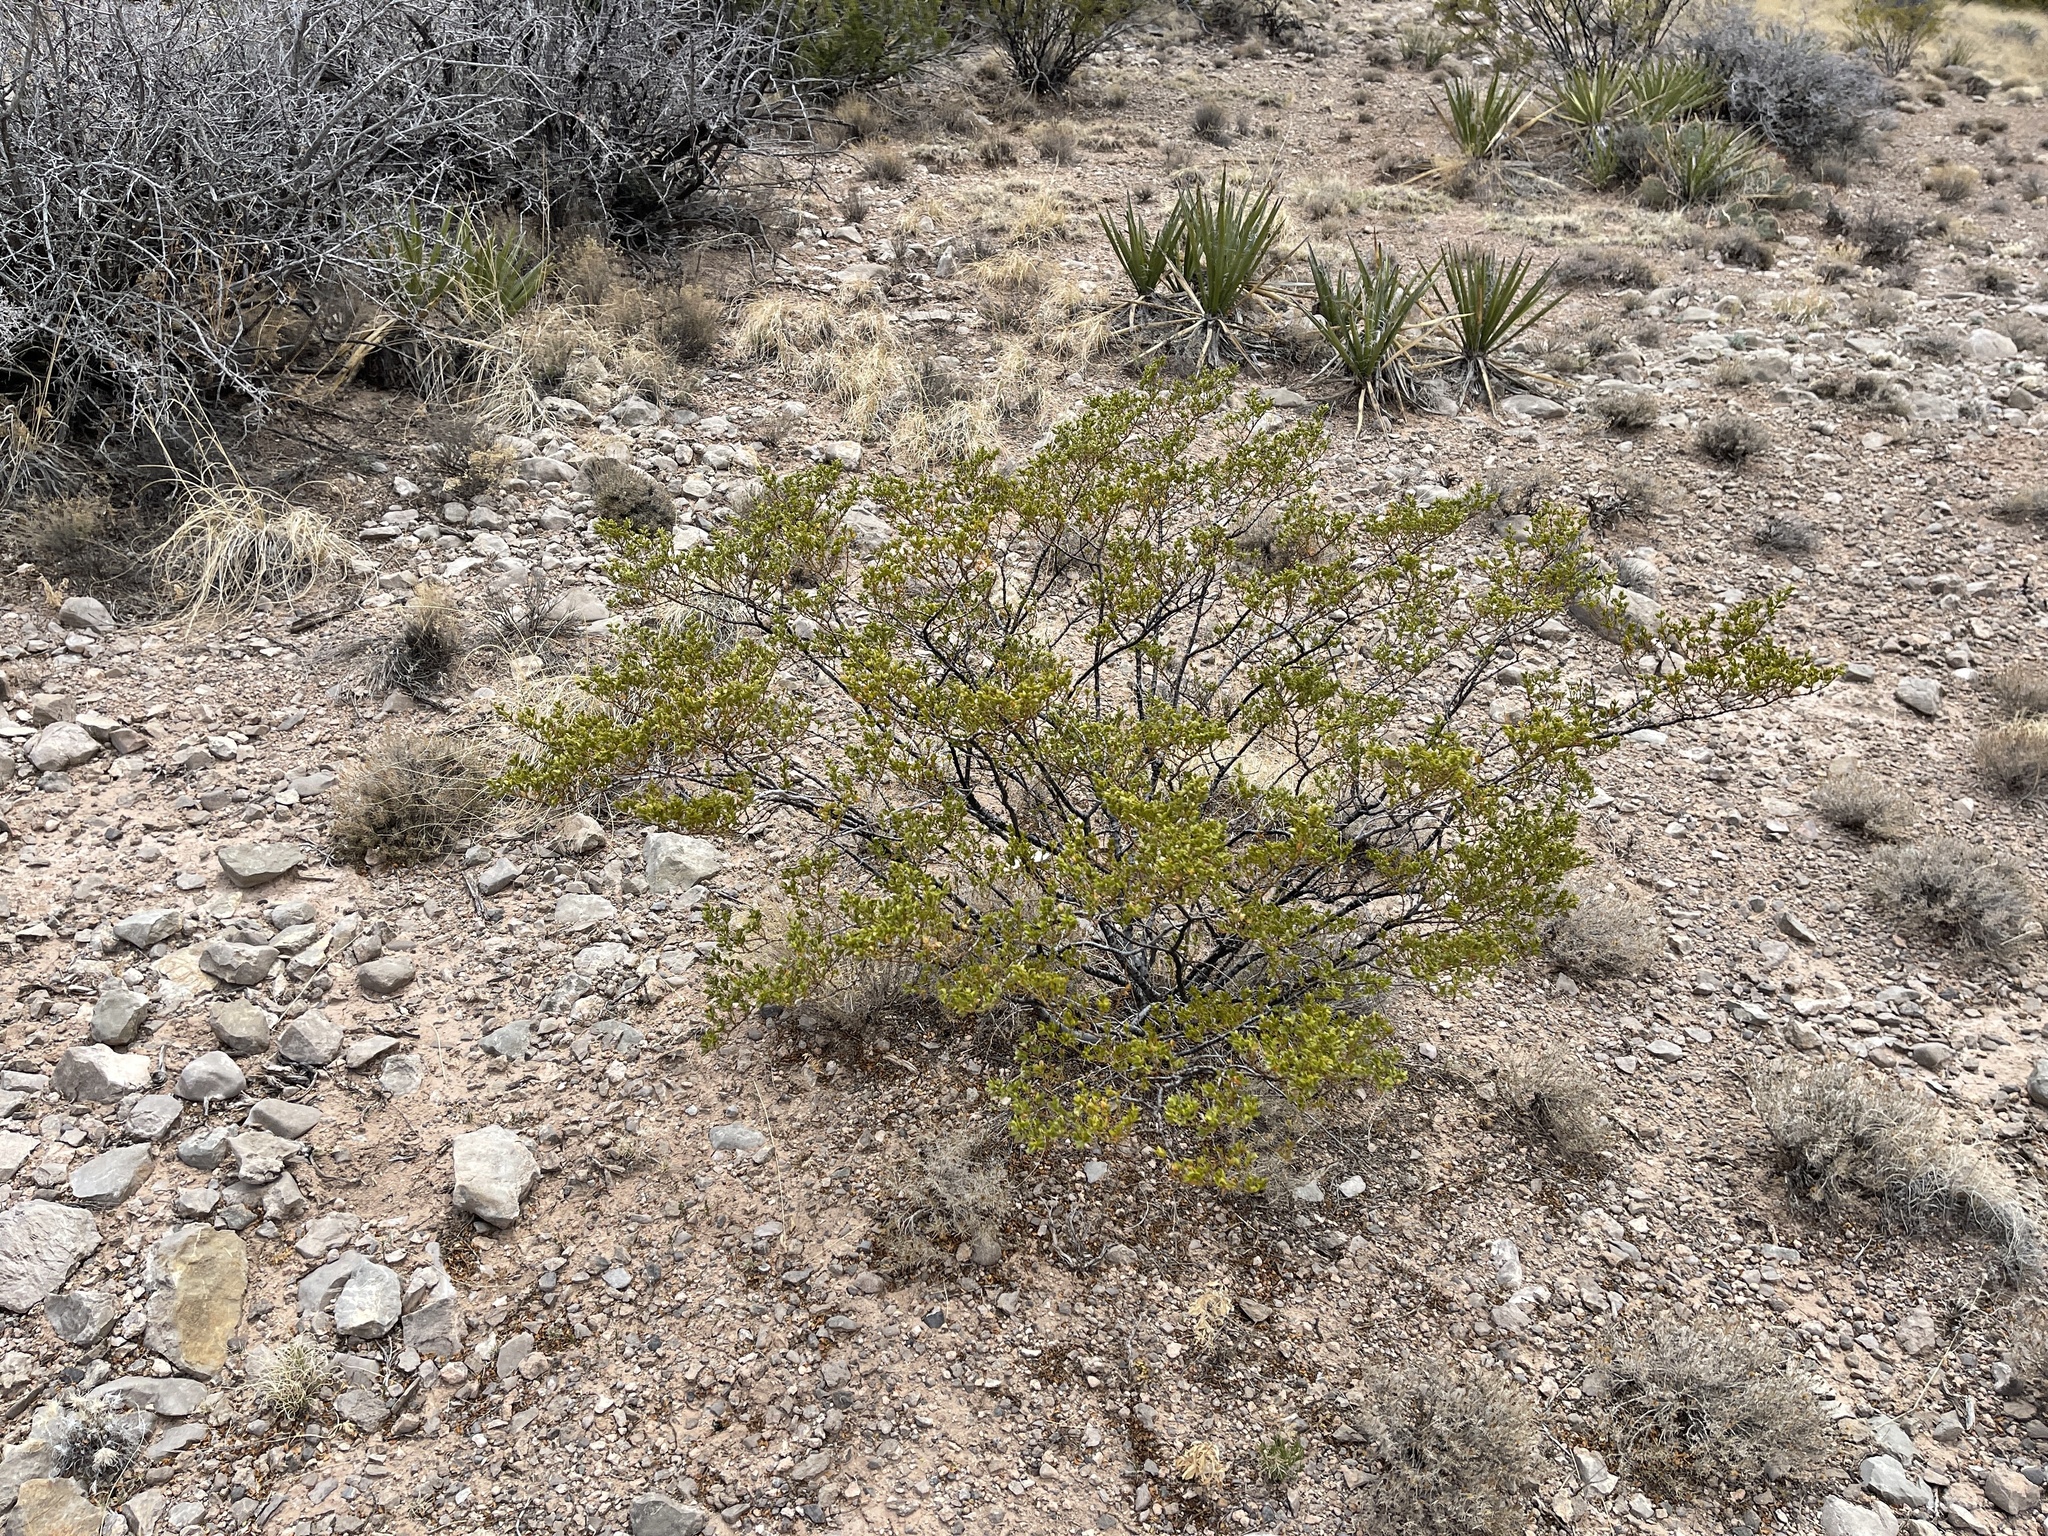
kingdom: Plantae
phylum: Tracheophyta
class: Magnoliopsida
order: Zygophyllales
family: Zygophyllaceae
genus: Larrea
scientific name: Larrea tridentata
